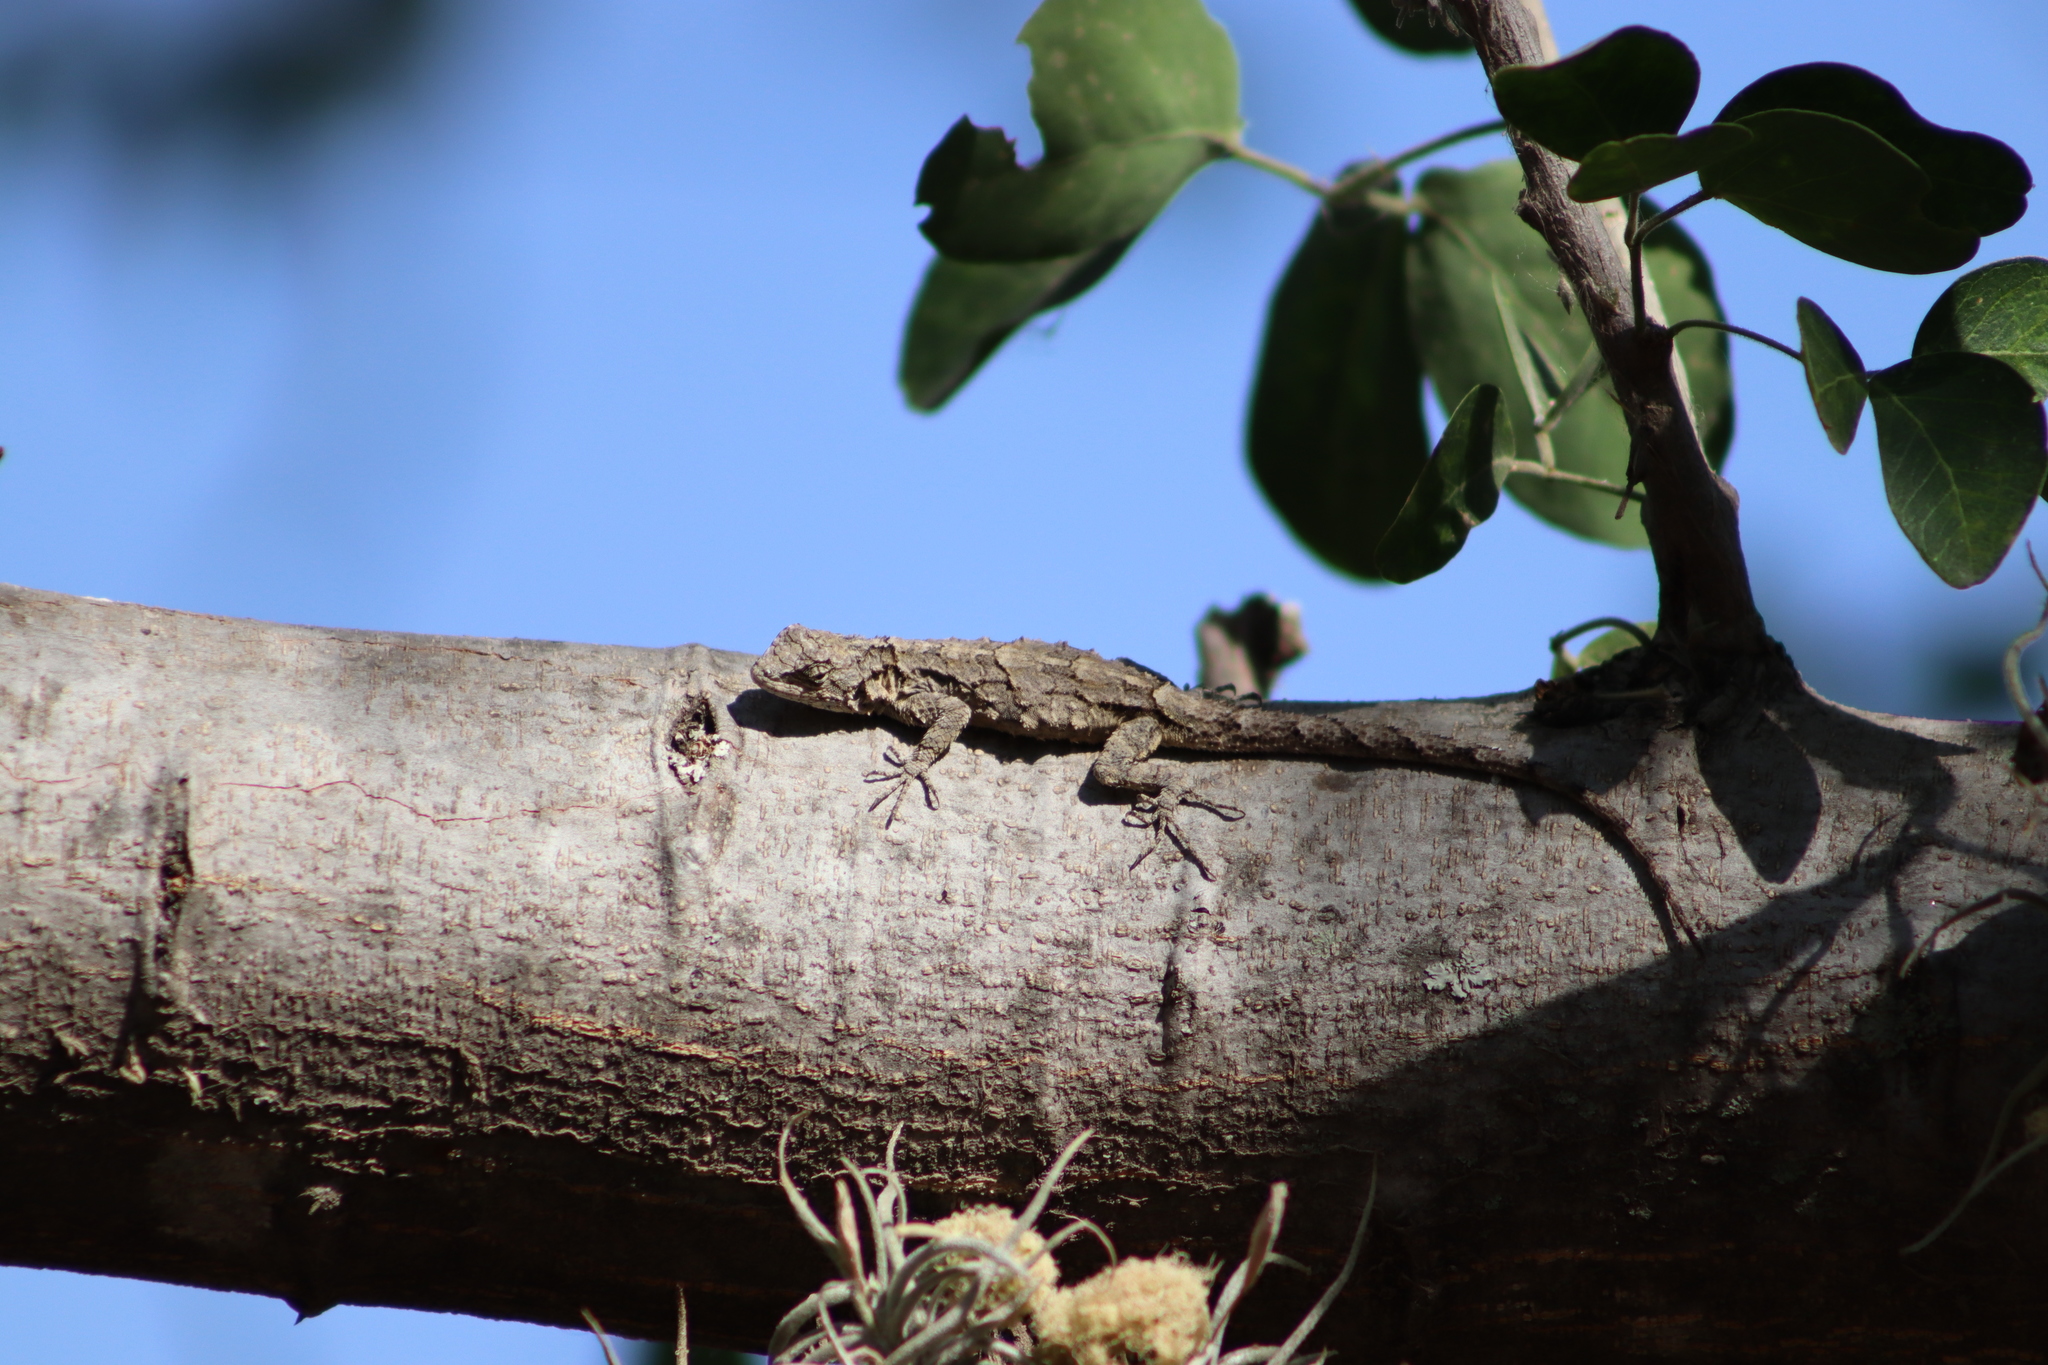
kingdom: Animalia
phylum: Chordata
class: Squamata
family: Phrynosomatidae
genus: Urosaurus
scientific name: Urosaurus bicarinatus
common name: Tropical tree lizard
